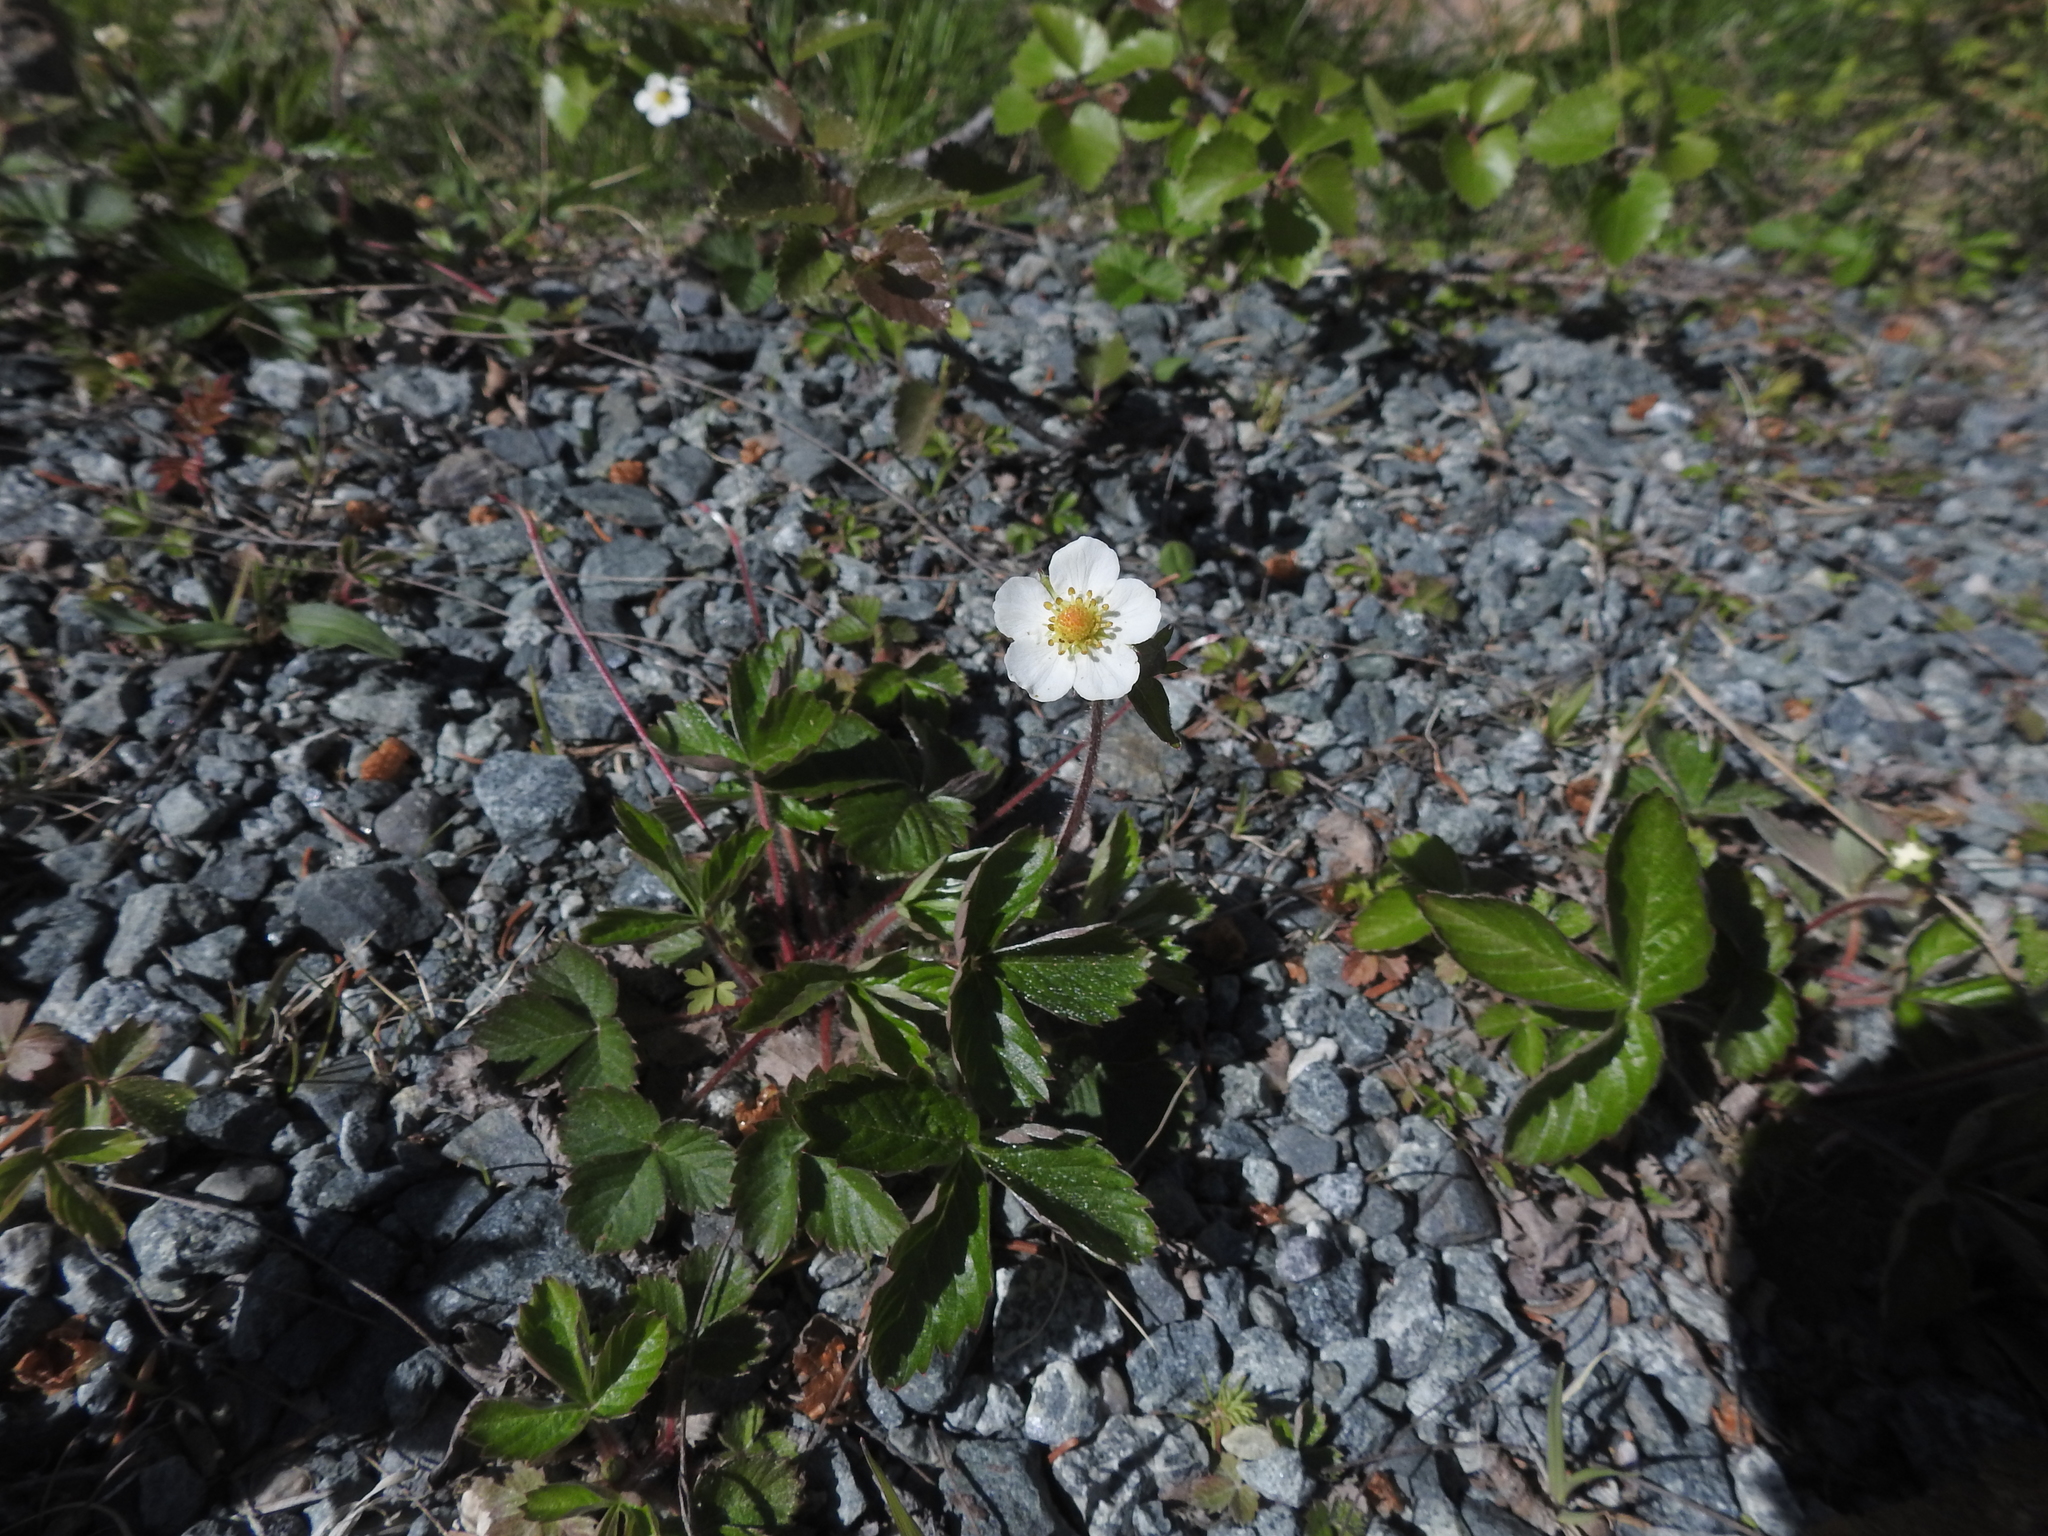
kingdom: Plantae
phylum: Tracheophyta
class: Magnoliopsida
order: Rosales
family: Rosaceae
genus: Fragaria
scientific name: Fragaria vesca
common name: Wild strawberry
